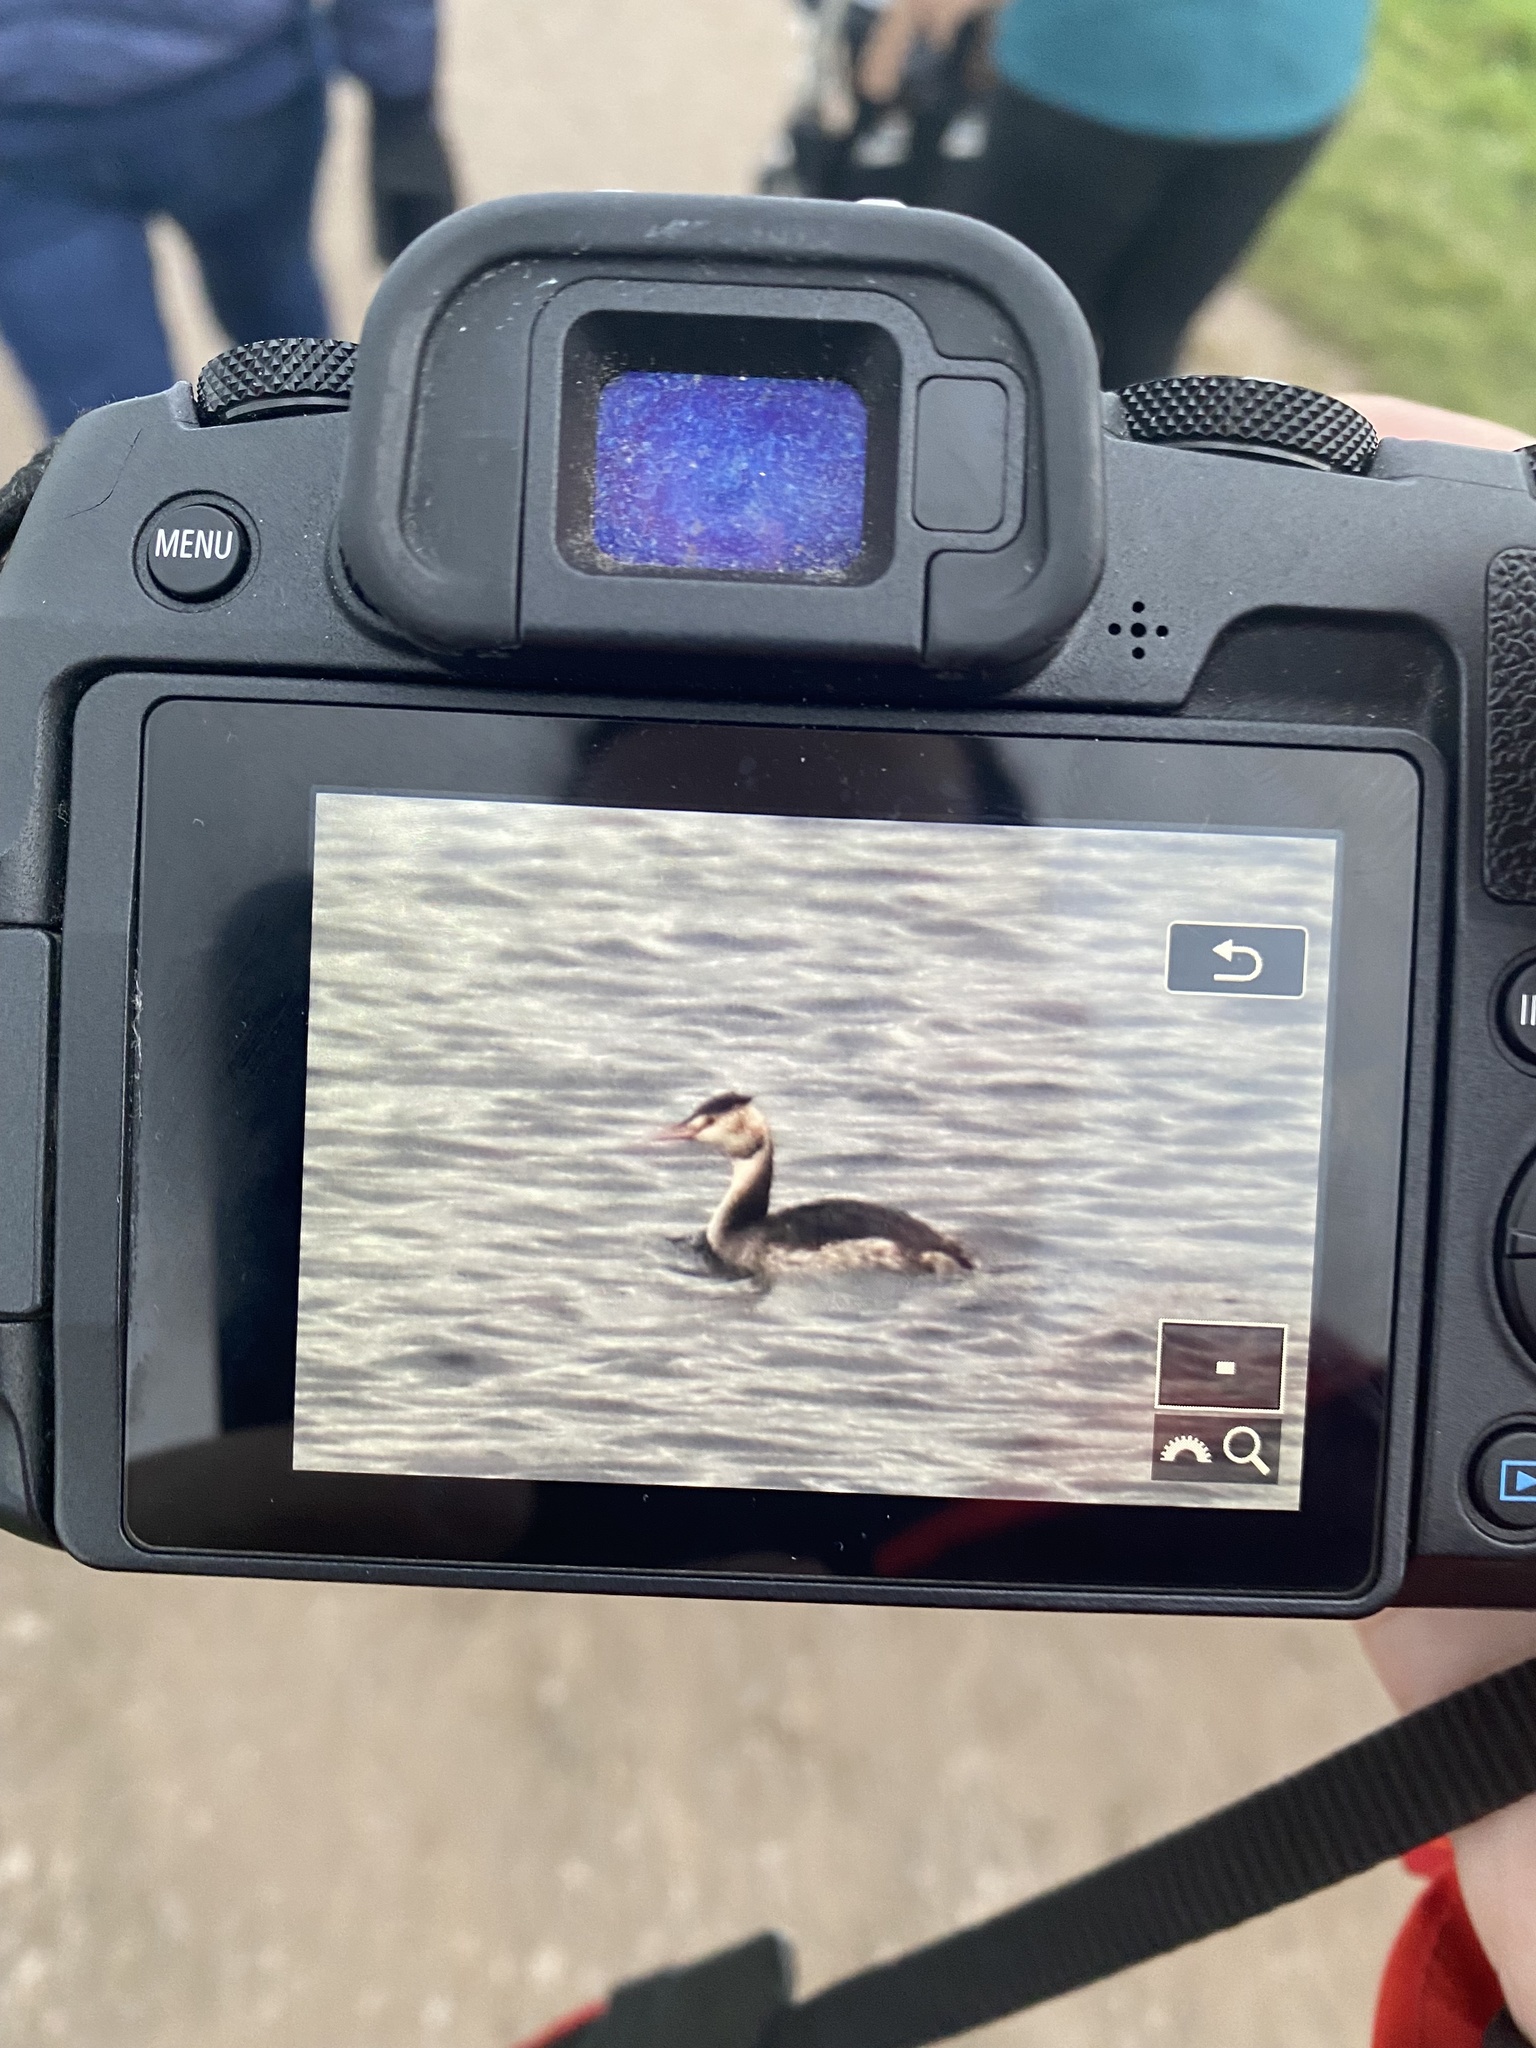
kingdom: Animalia
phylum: Chordata
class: Aves
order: Podicipediformes
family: Podicipedidae
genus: Podiceps
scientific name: Podiceps cristatus
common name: Great crested grebe
